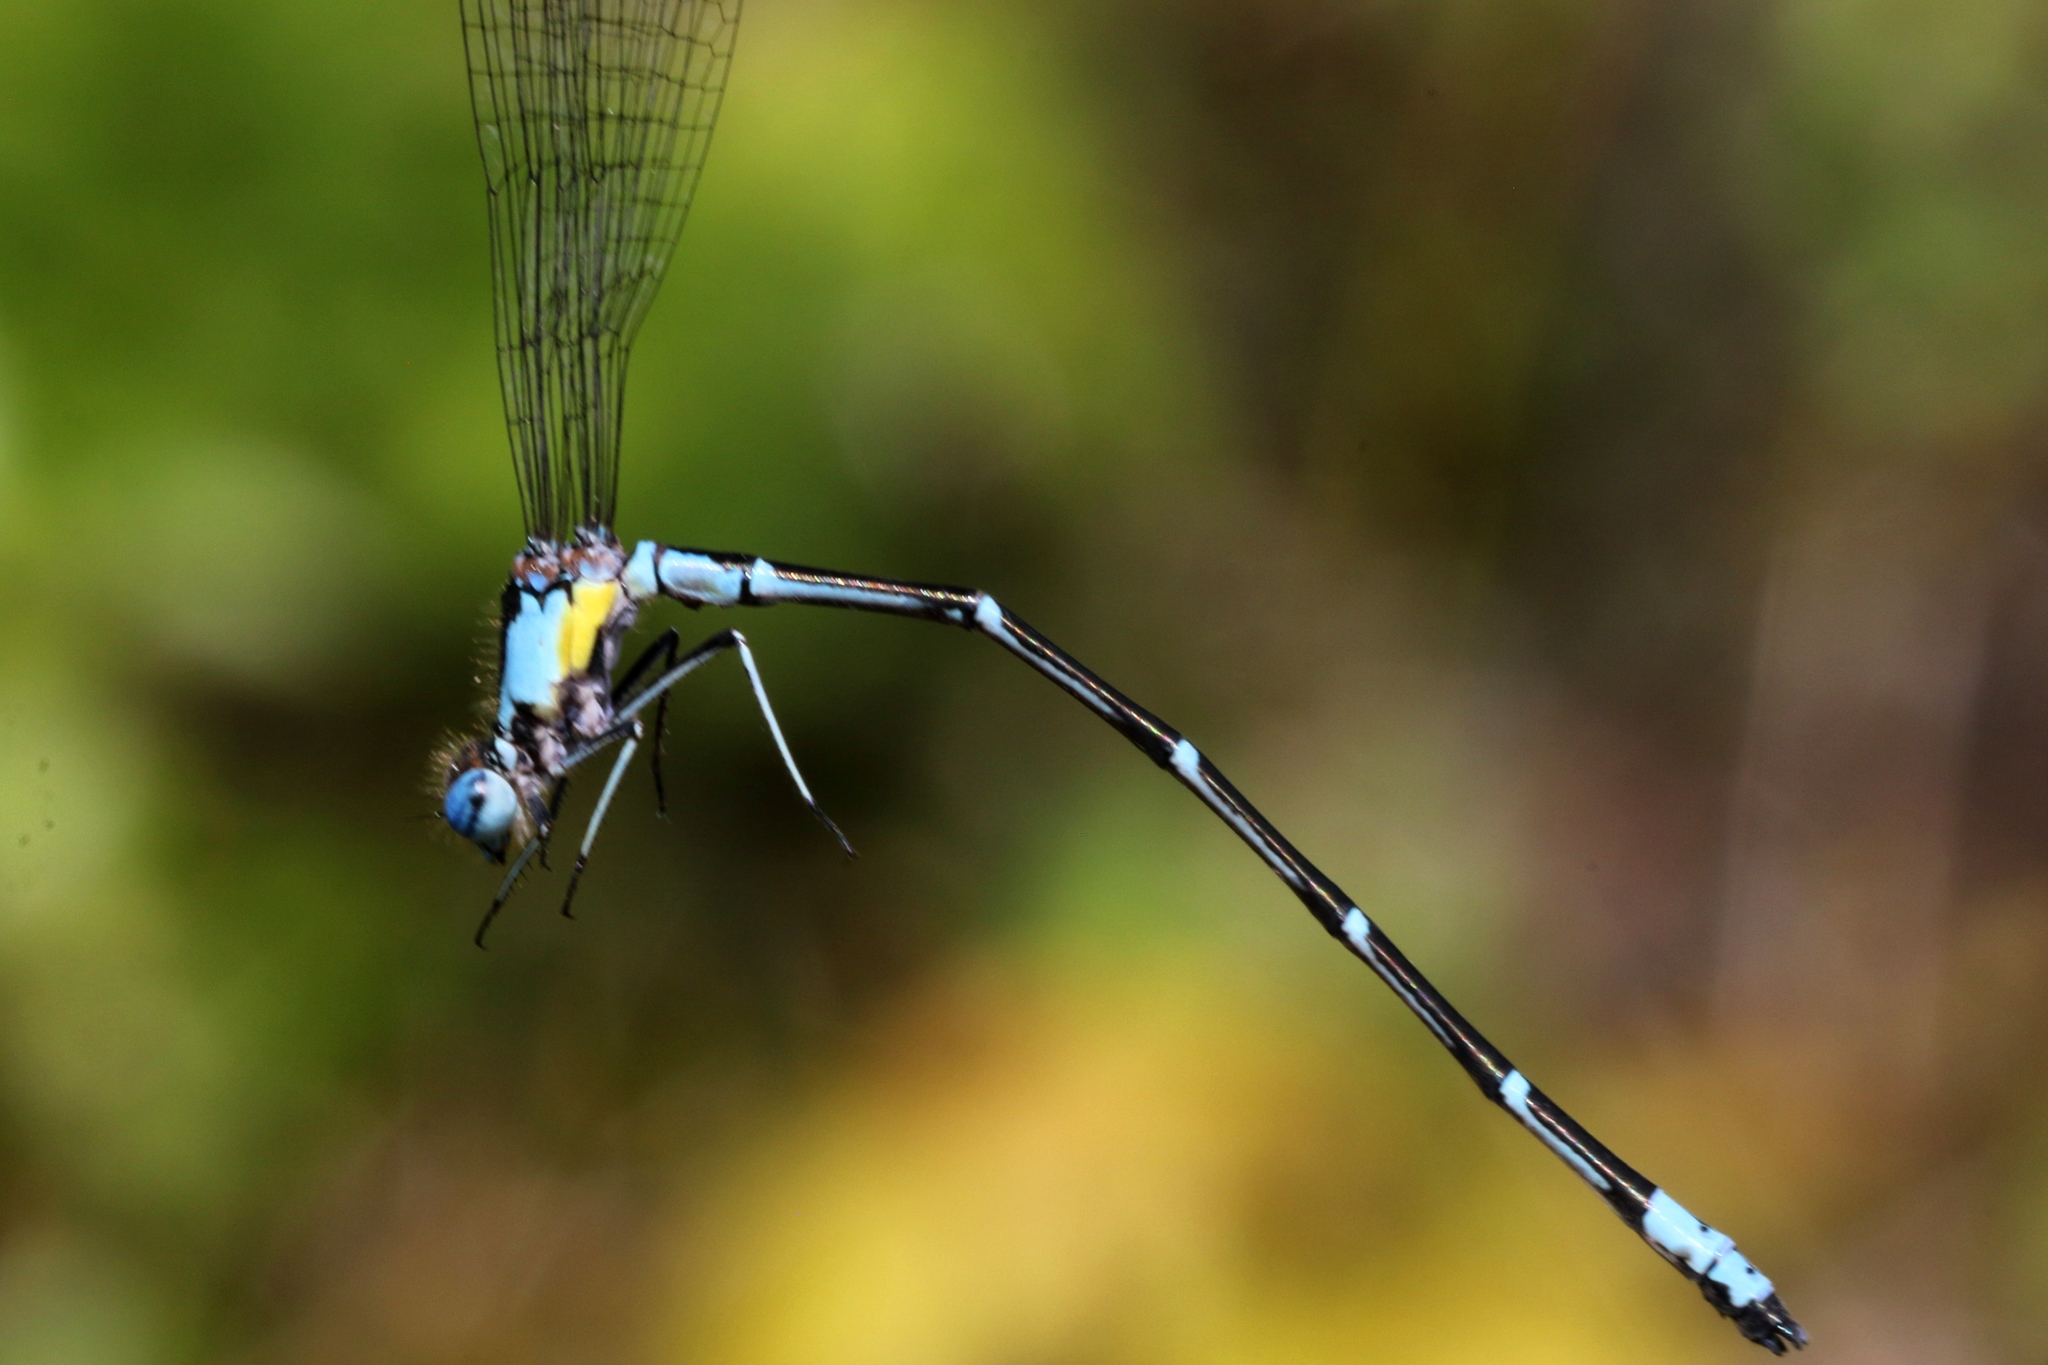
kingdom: Animalia
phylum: Arthropoda
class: Insecta
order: Odonata
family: Coenagrionidae
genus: Chromagrion
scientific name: Chromagrion conditum
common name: Aurora damsel
